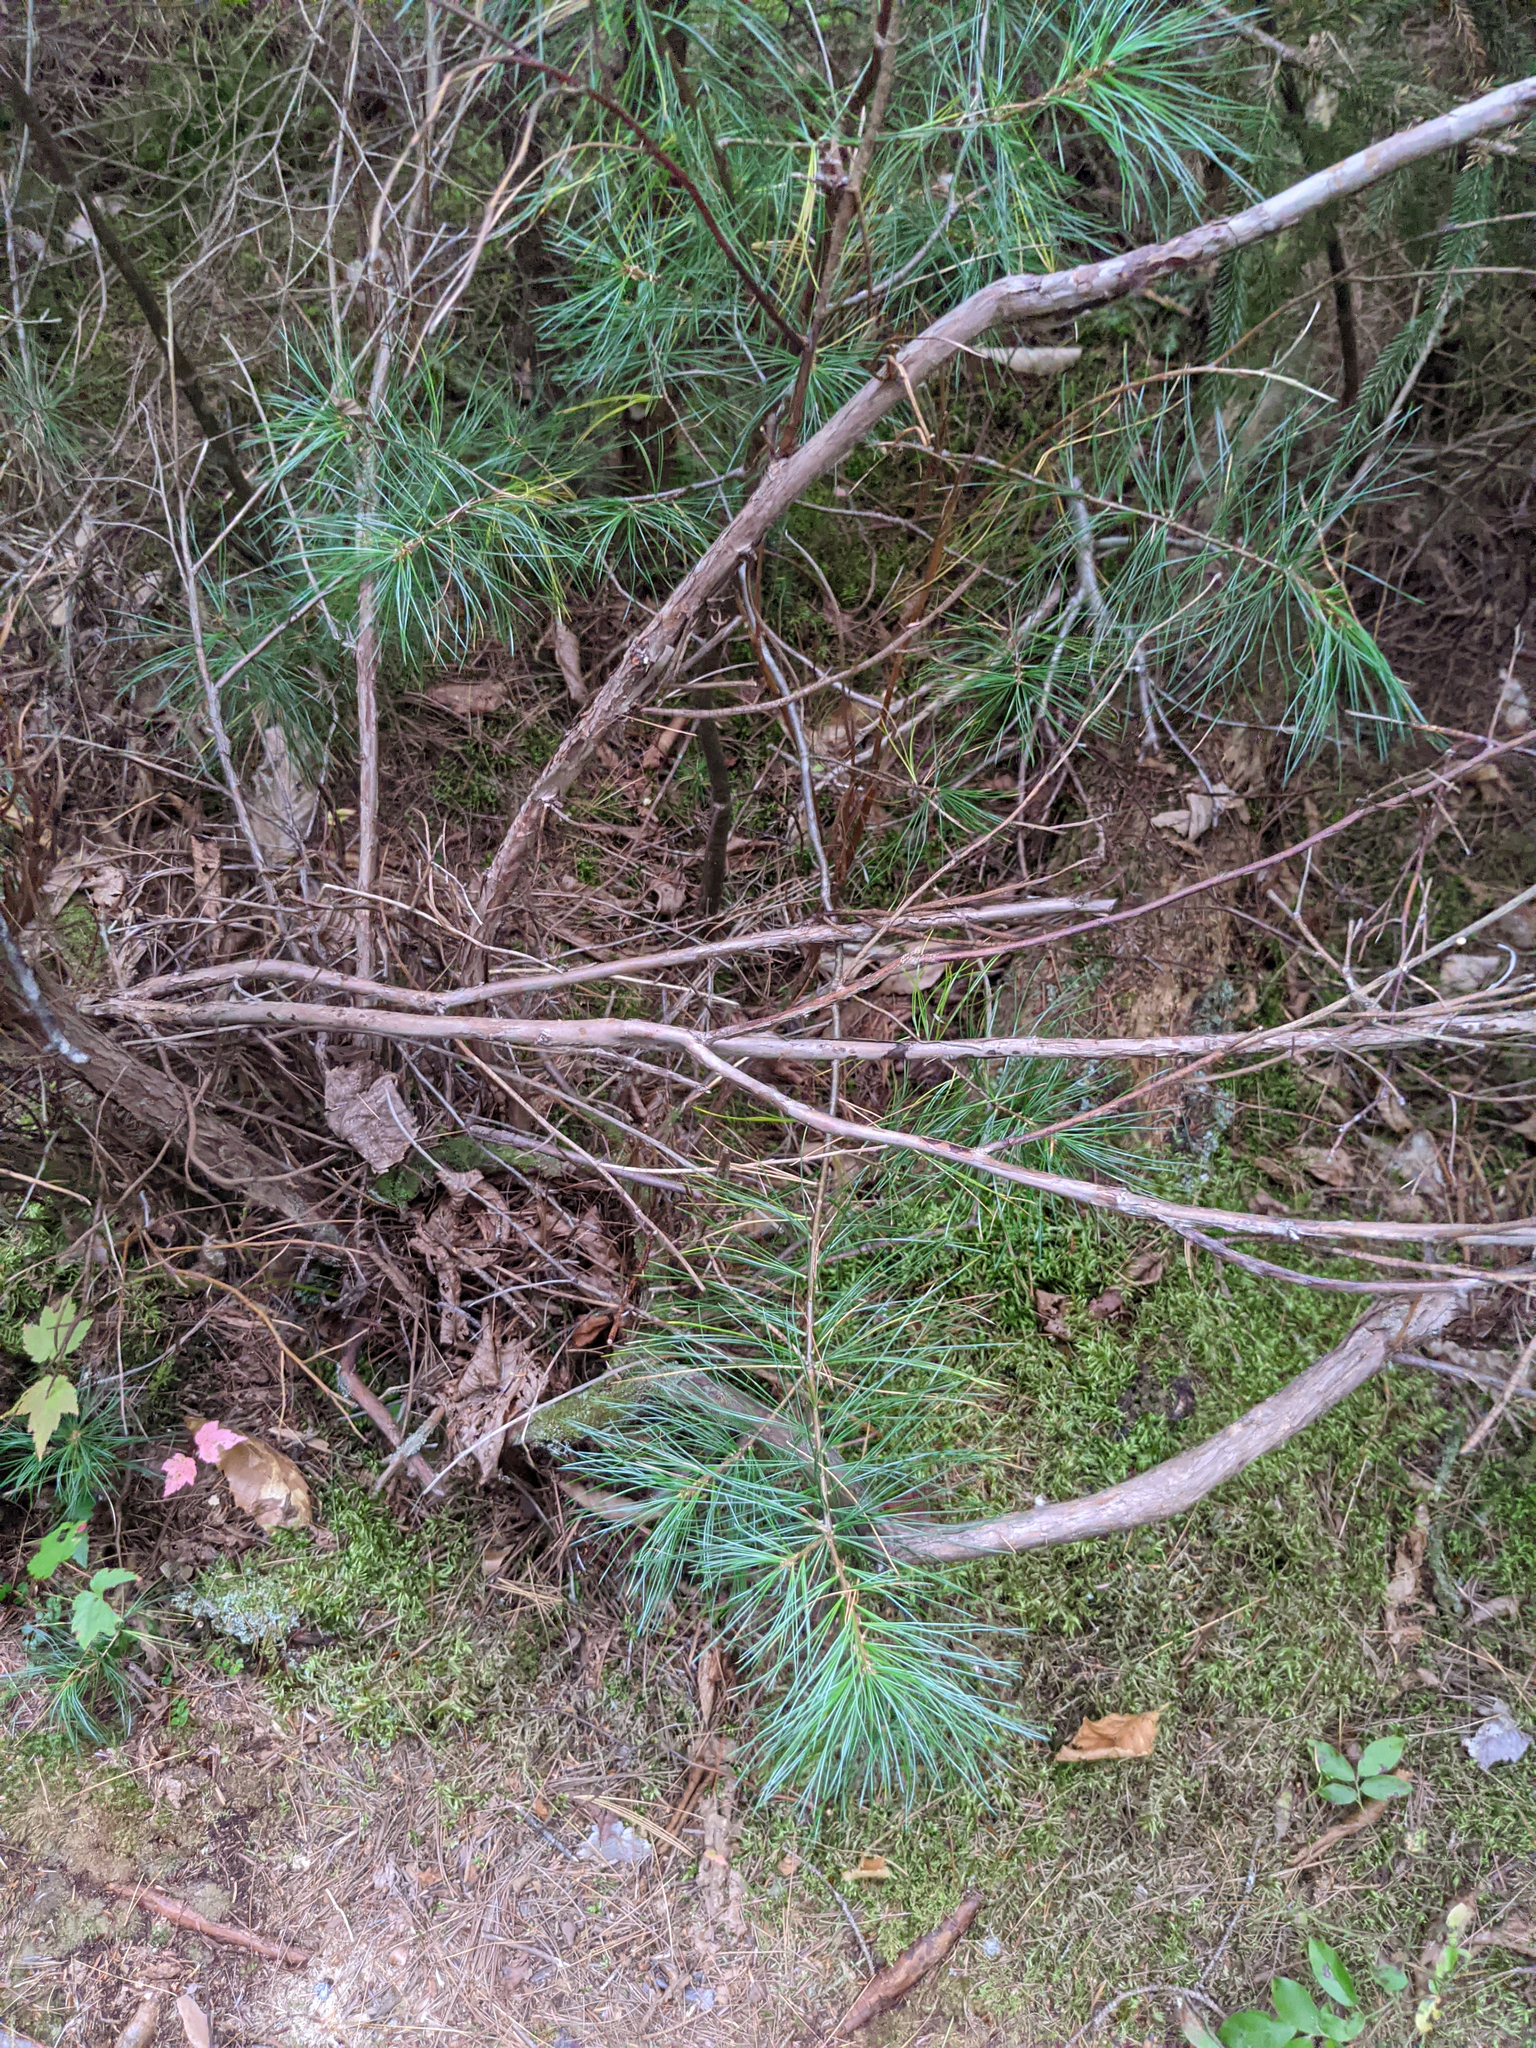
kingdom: Plantae
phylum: Tracheophyta
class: Pinopsida
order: Pinales
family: Pinaceae
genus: Pinus
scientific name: Pinus strobus
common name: Weymouth pine
